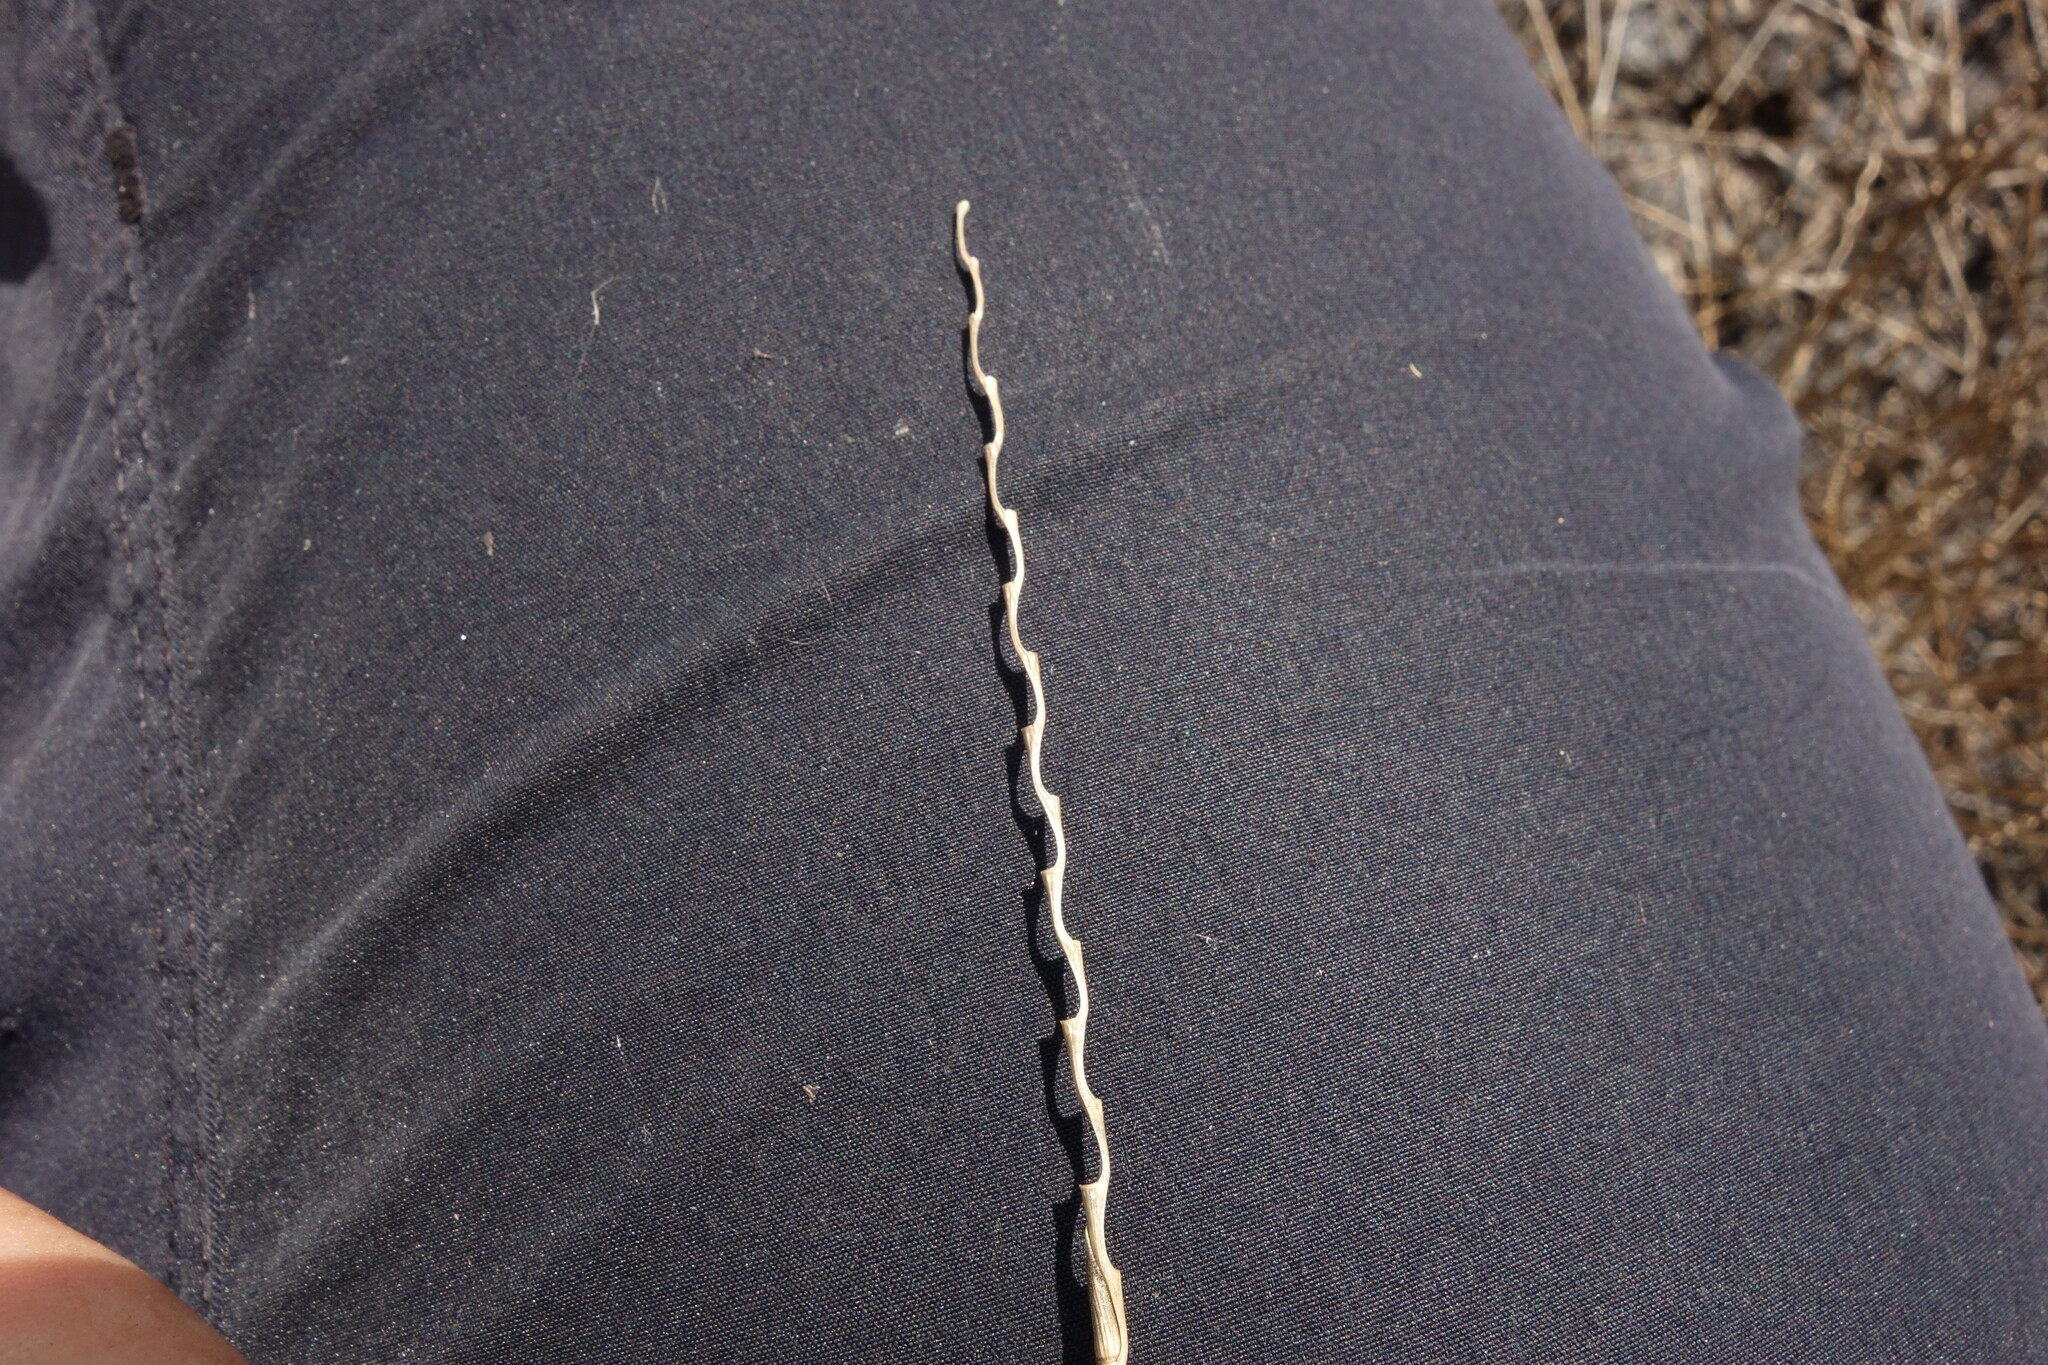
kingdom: Plantae
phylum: Tracheophyta
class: Liliopsida
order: Poales
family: Poaceae
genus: Pholiurus
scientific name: Pholiurus pannonicus
